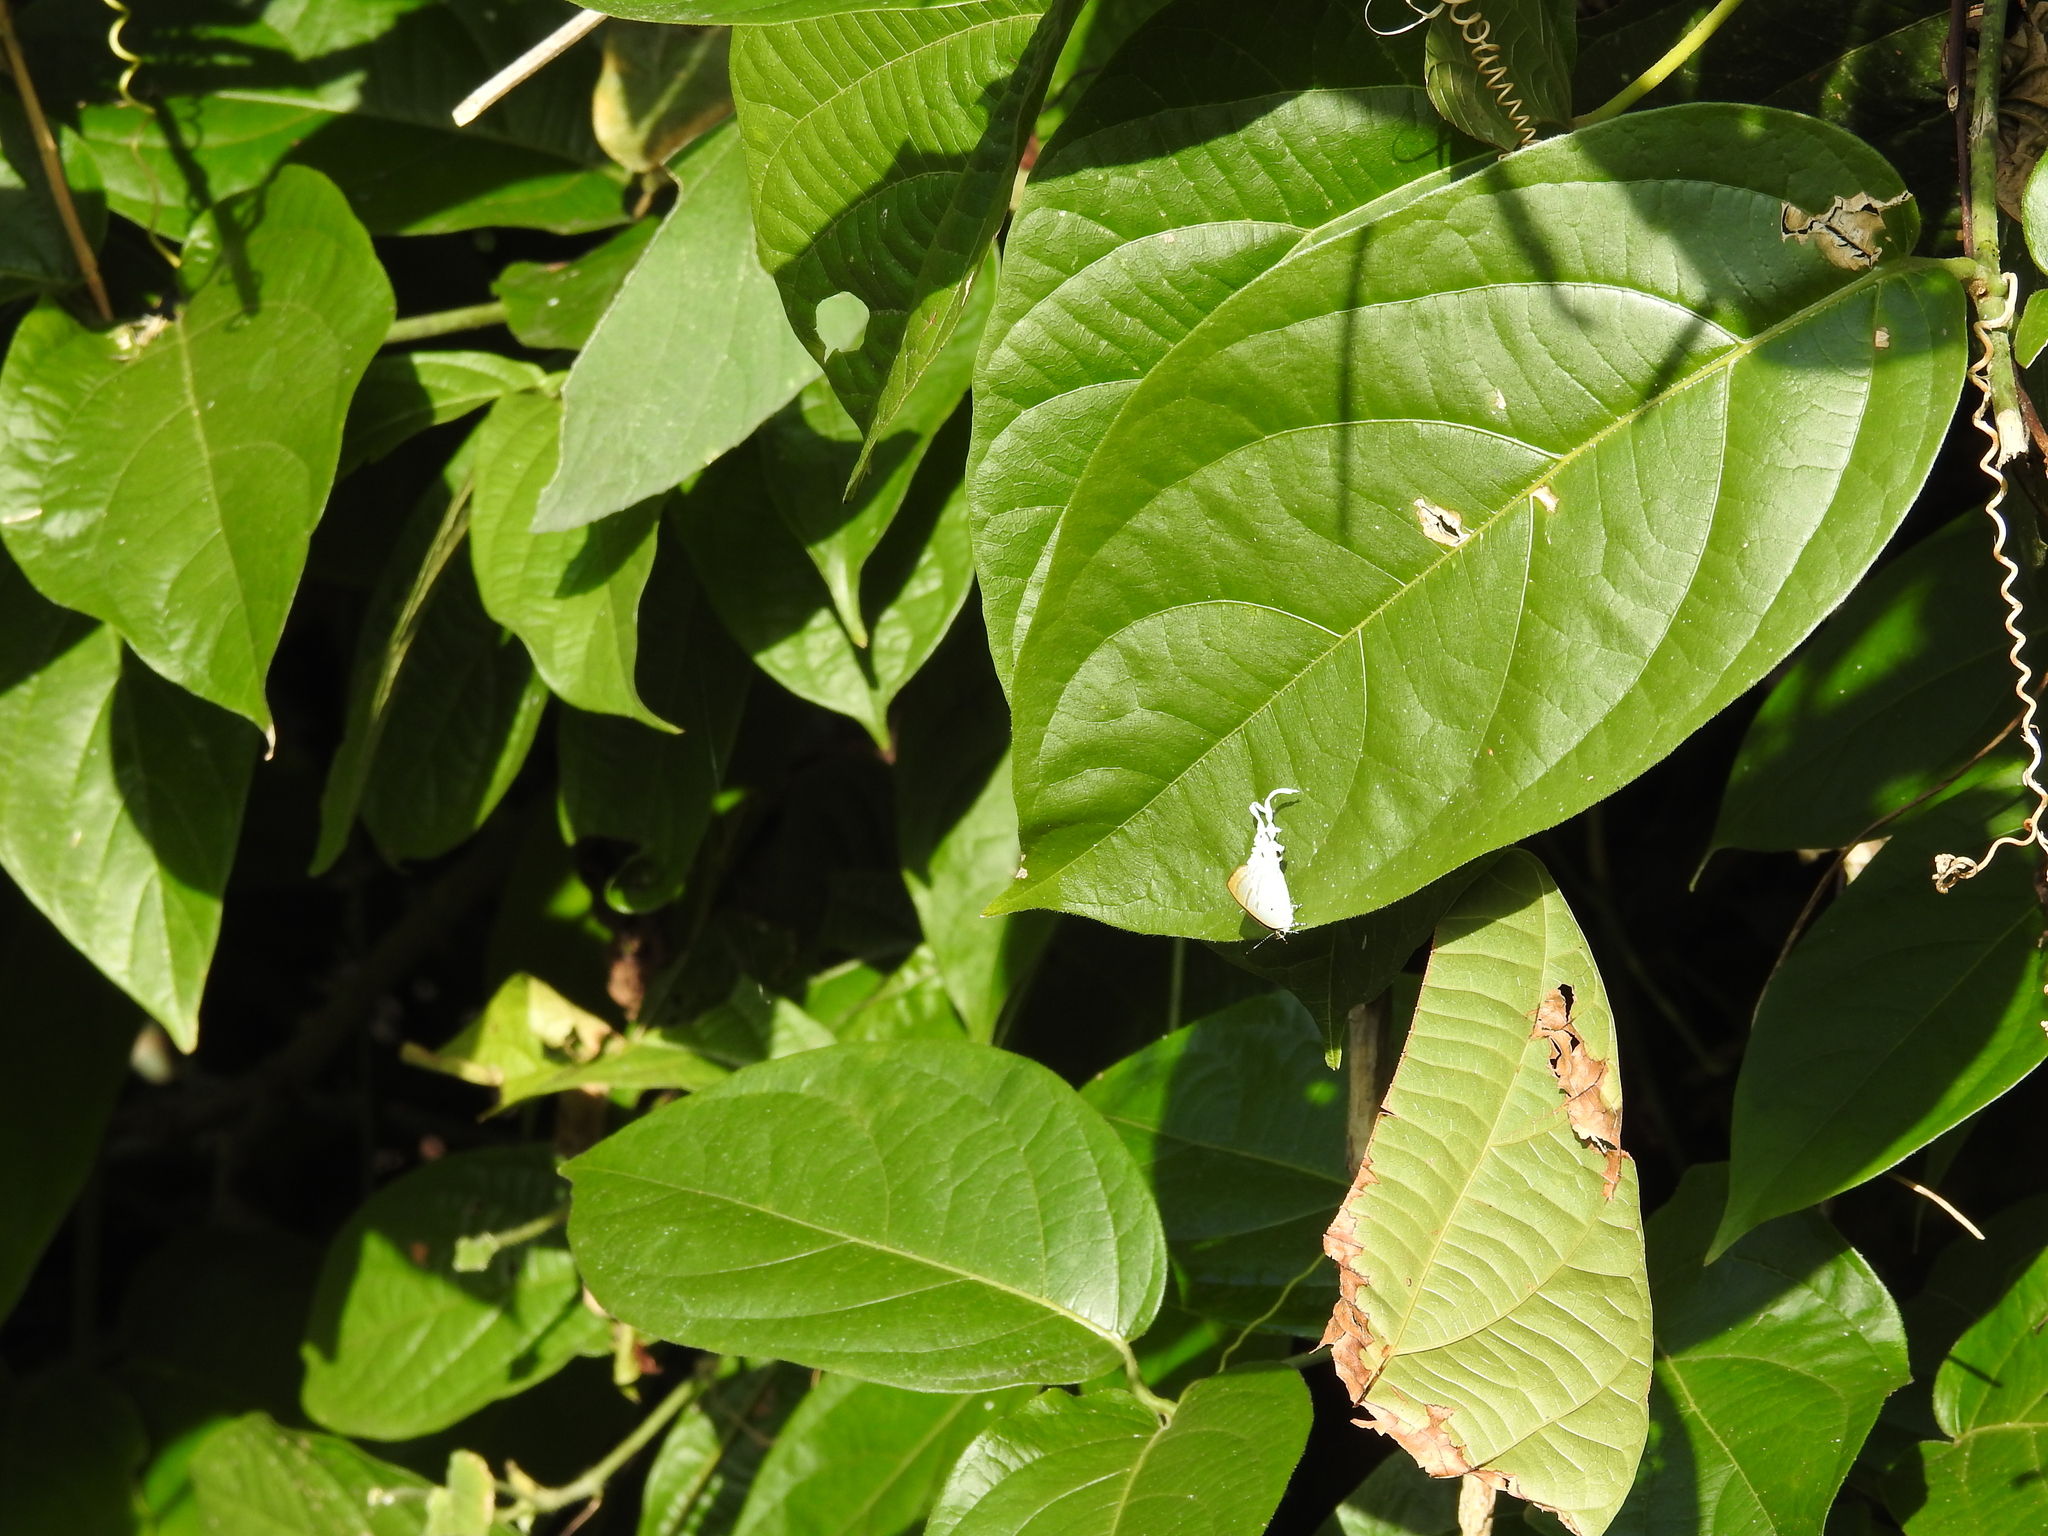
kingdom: Animalia
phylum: Arthropoda
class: Insecta
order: Lepidoptera
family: Lycaenidae
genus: Zeltus
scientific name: Zeltus amasa
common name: Fluffy tit
